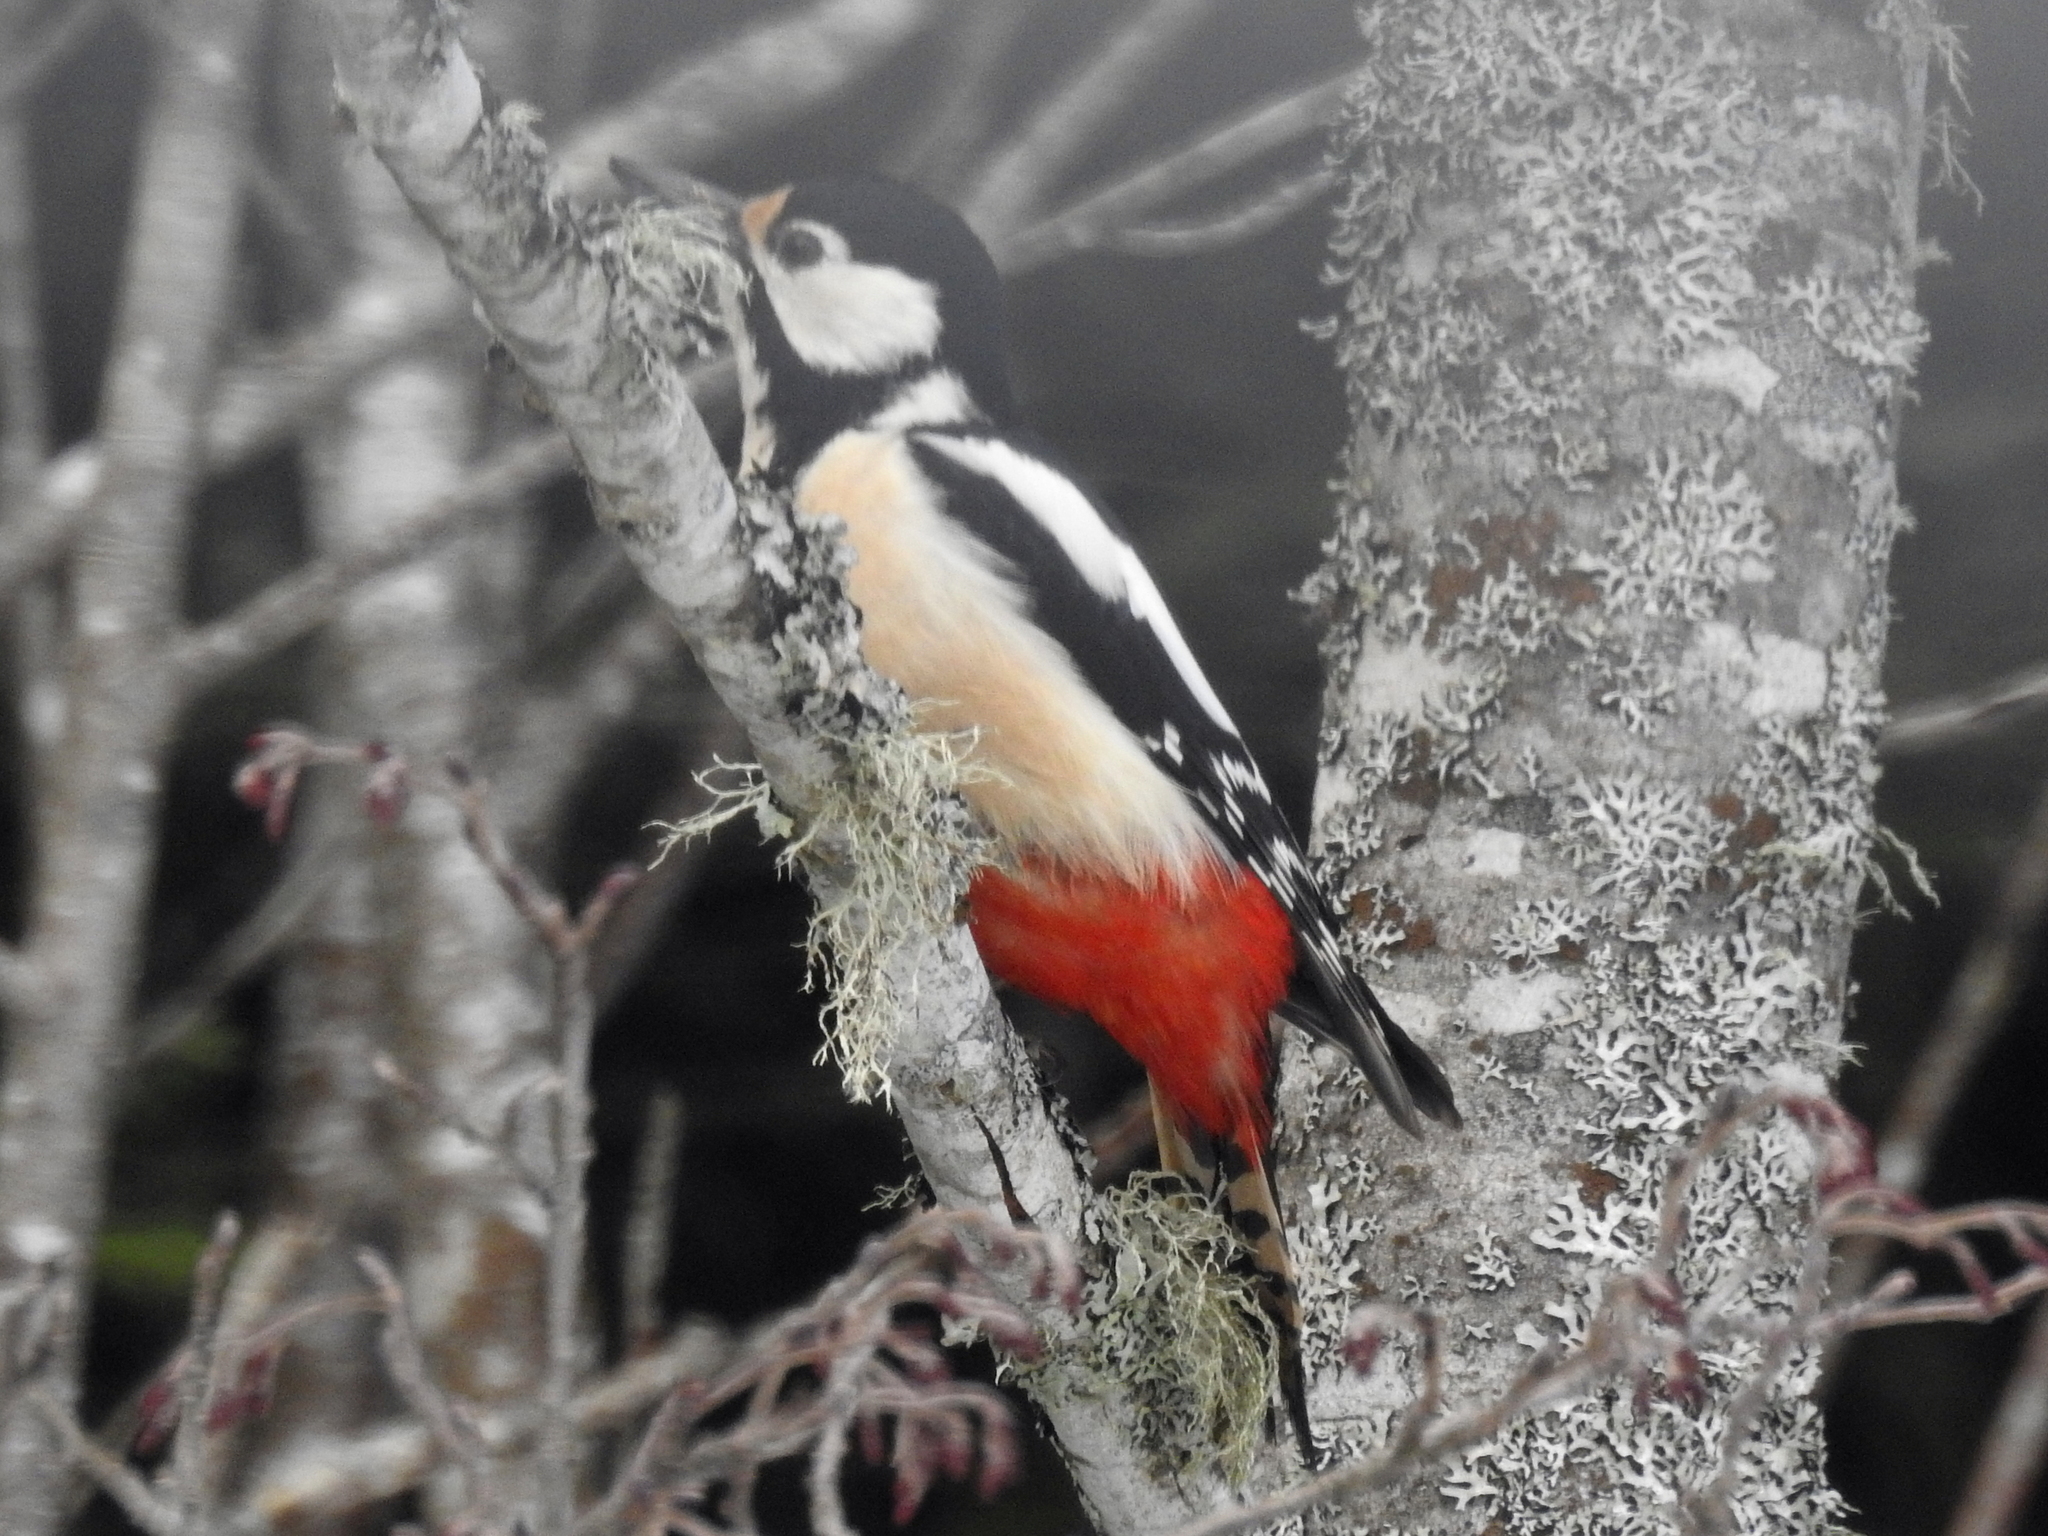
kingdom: Animalia
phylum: Chordata
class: Aves
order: Piciformes
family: Picidae
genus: Dendrocopos
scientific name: Dendrocopos major
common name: Great spotted woodpecker
